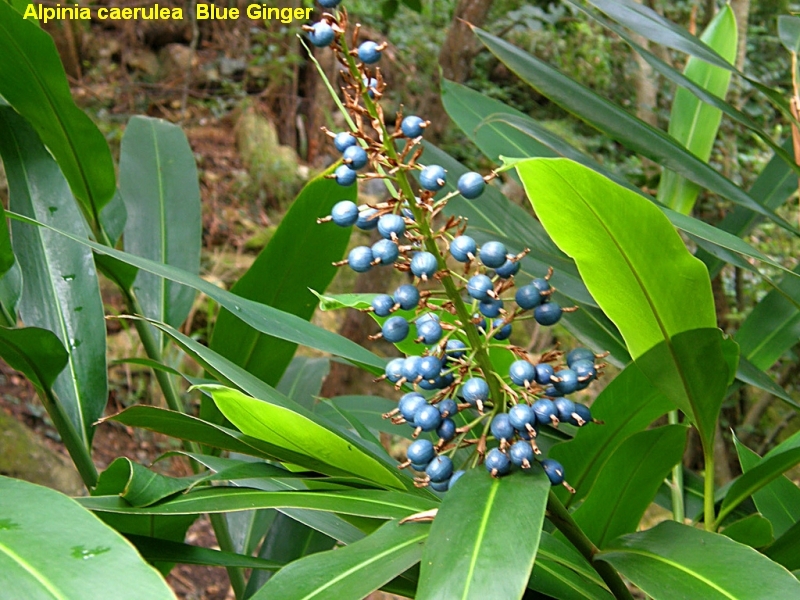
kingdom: Plantae
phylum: Tracheophyta
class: Liliopsida
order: Zingiberales
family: Zingiberaceae
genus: Alpinia
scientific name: Alpinia caerulea
